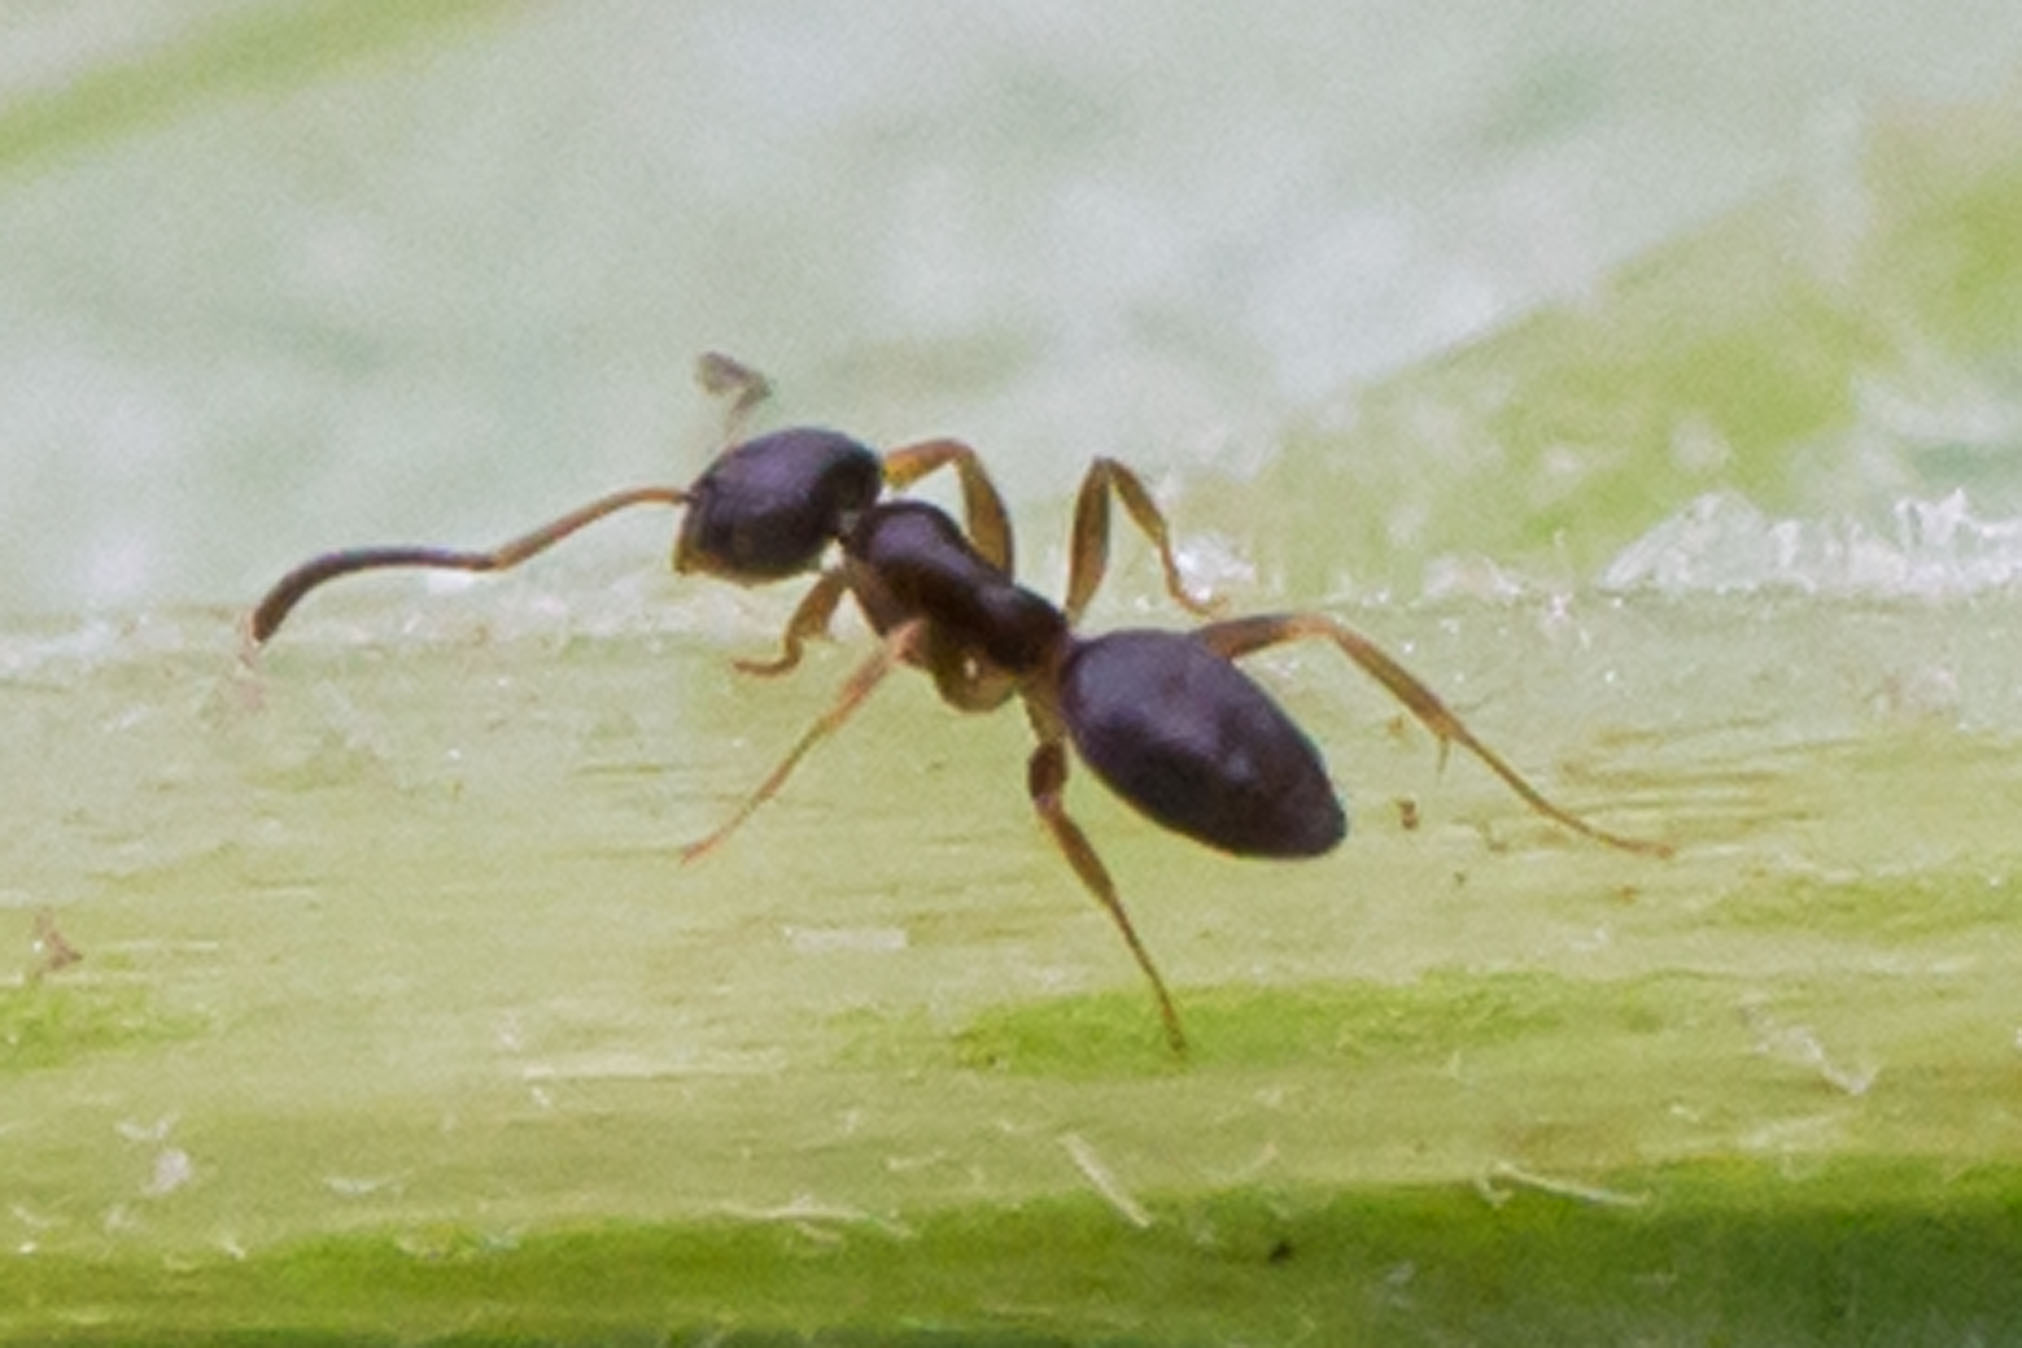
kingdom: Animalia
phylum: Arthropoda
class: Insecta
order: Hymenoptera
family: Formicidae
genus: Tapinoma
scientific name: Tapinoma sessile
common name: Odorous house ant
